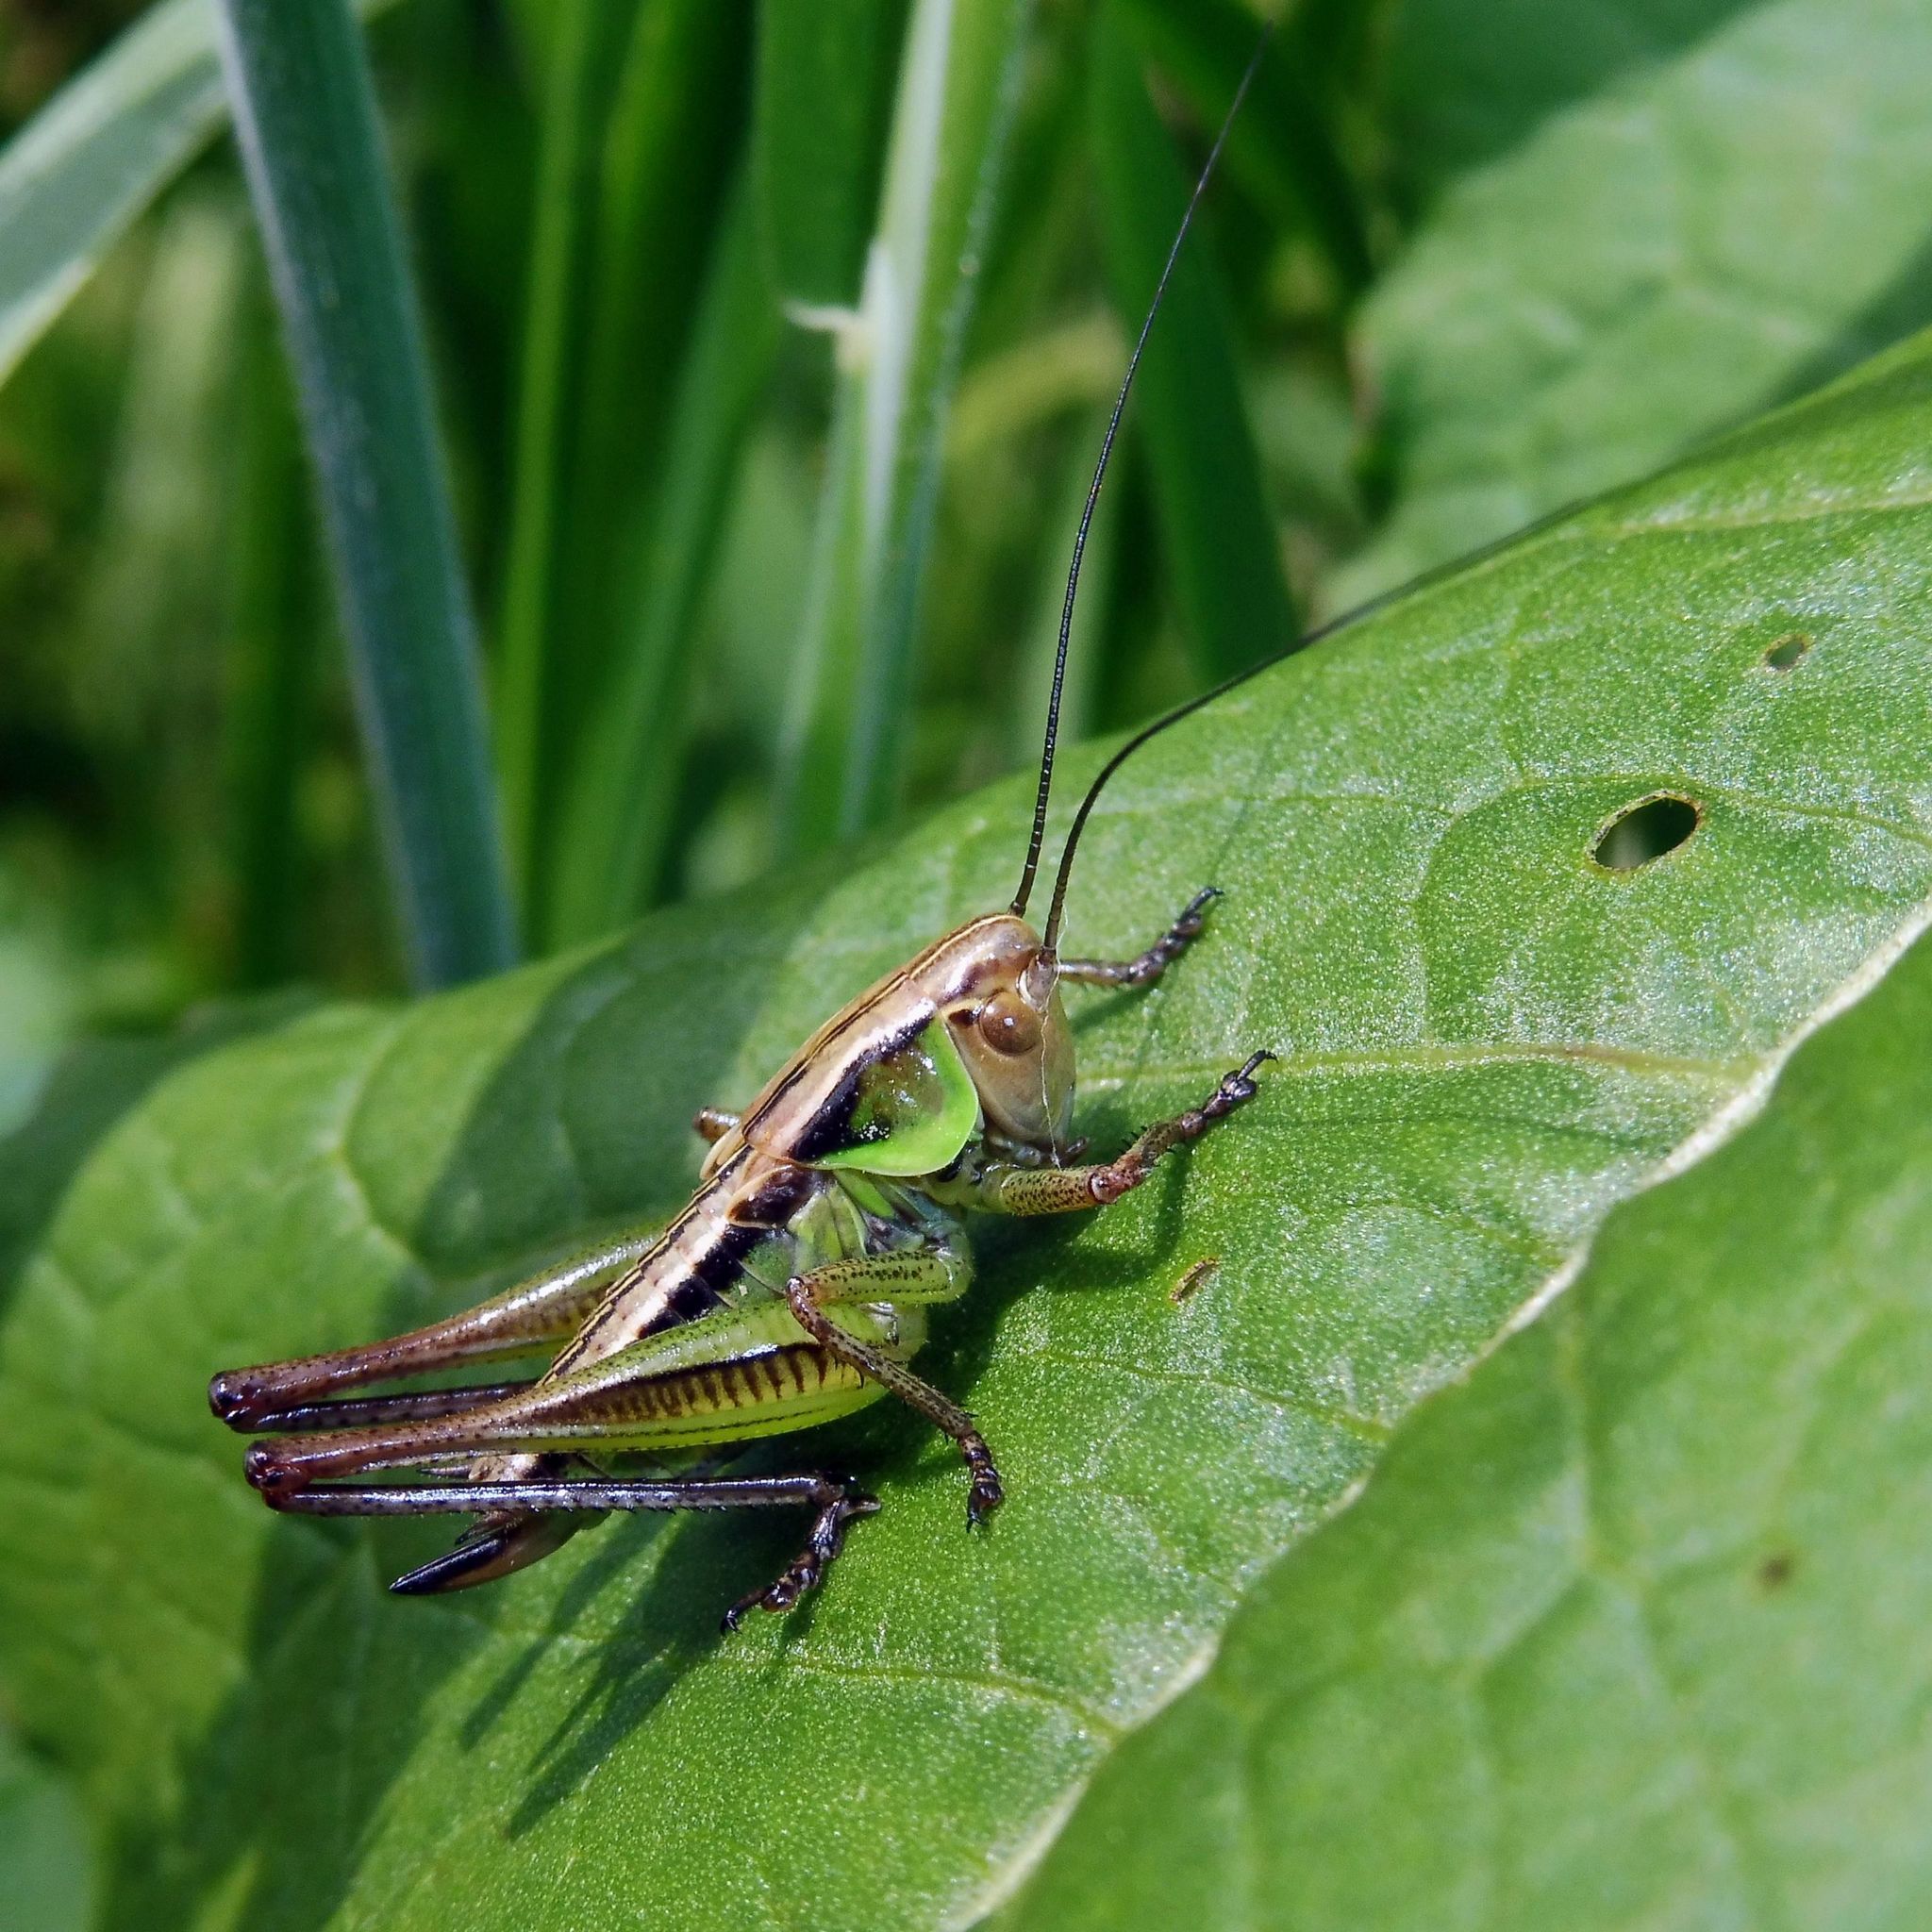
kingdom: Animalia
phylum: Arthropoda
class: Insecta
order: Orthoptera
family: Tettigoniidae
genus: Roeseliana
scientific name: Roeseliana roeselii
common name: Roesel's bush cricket
